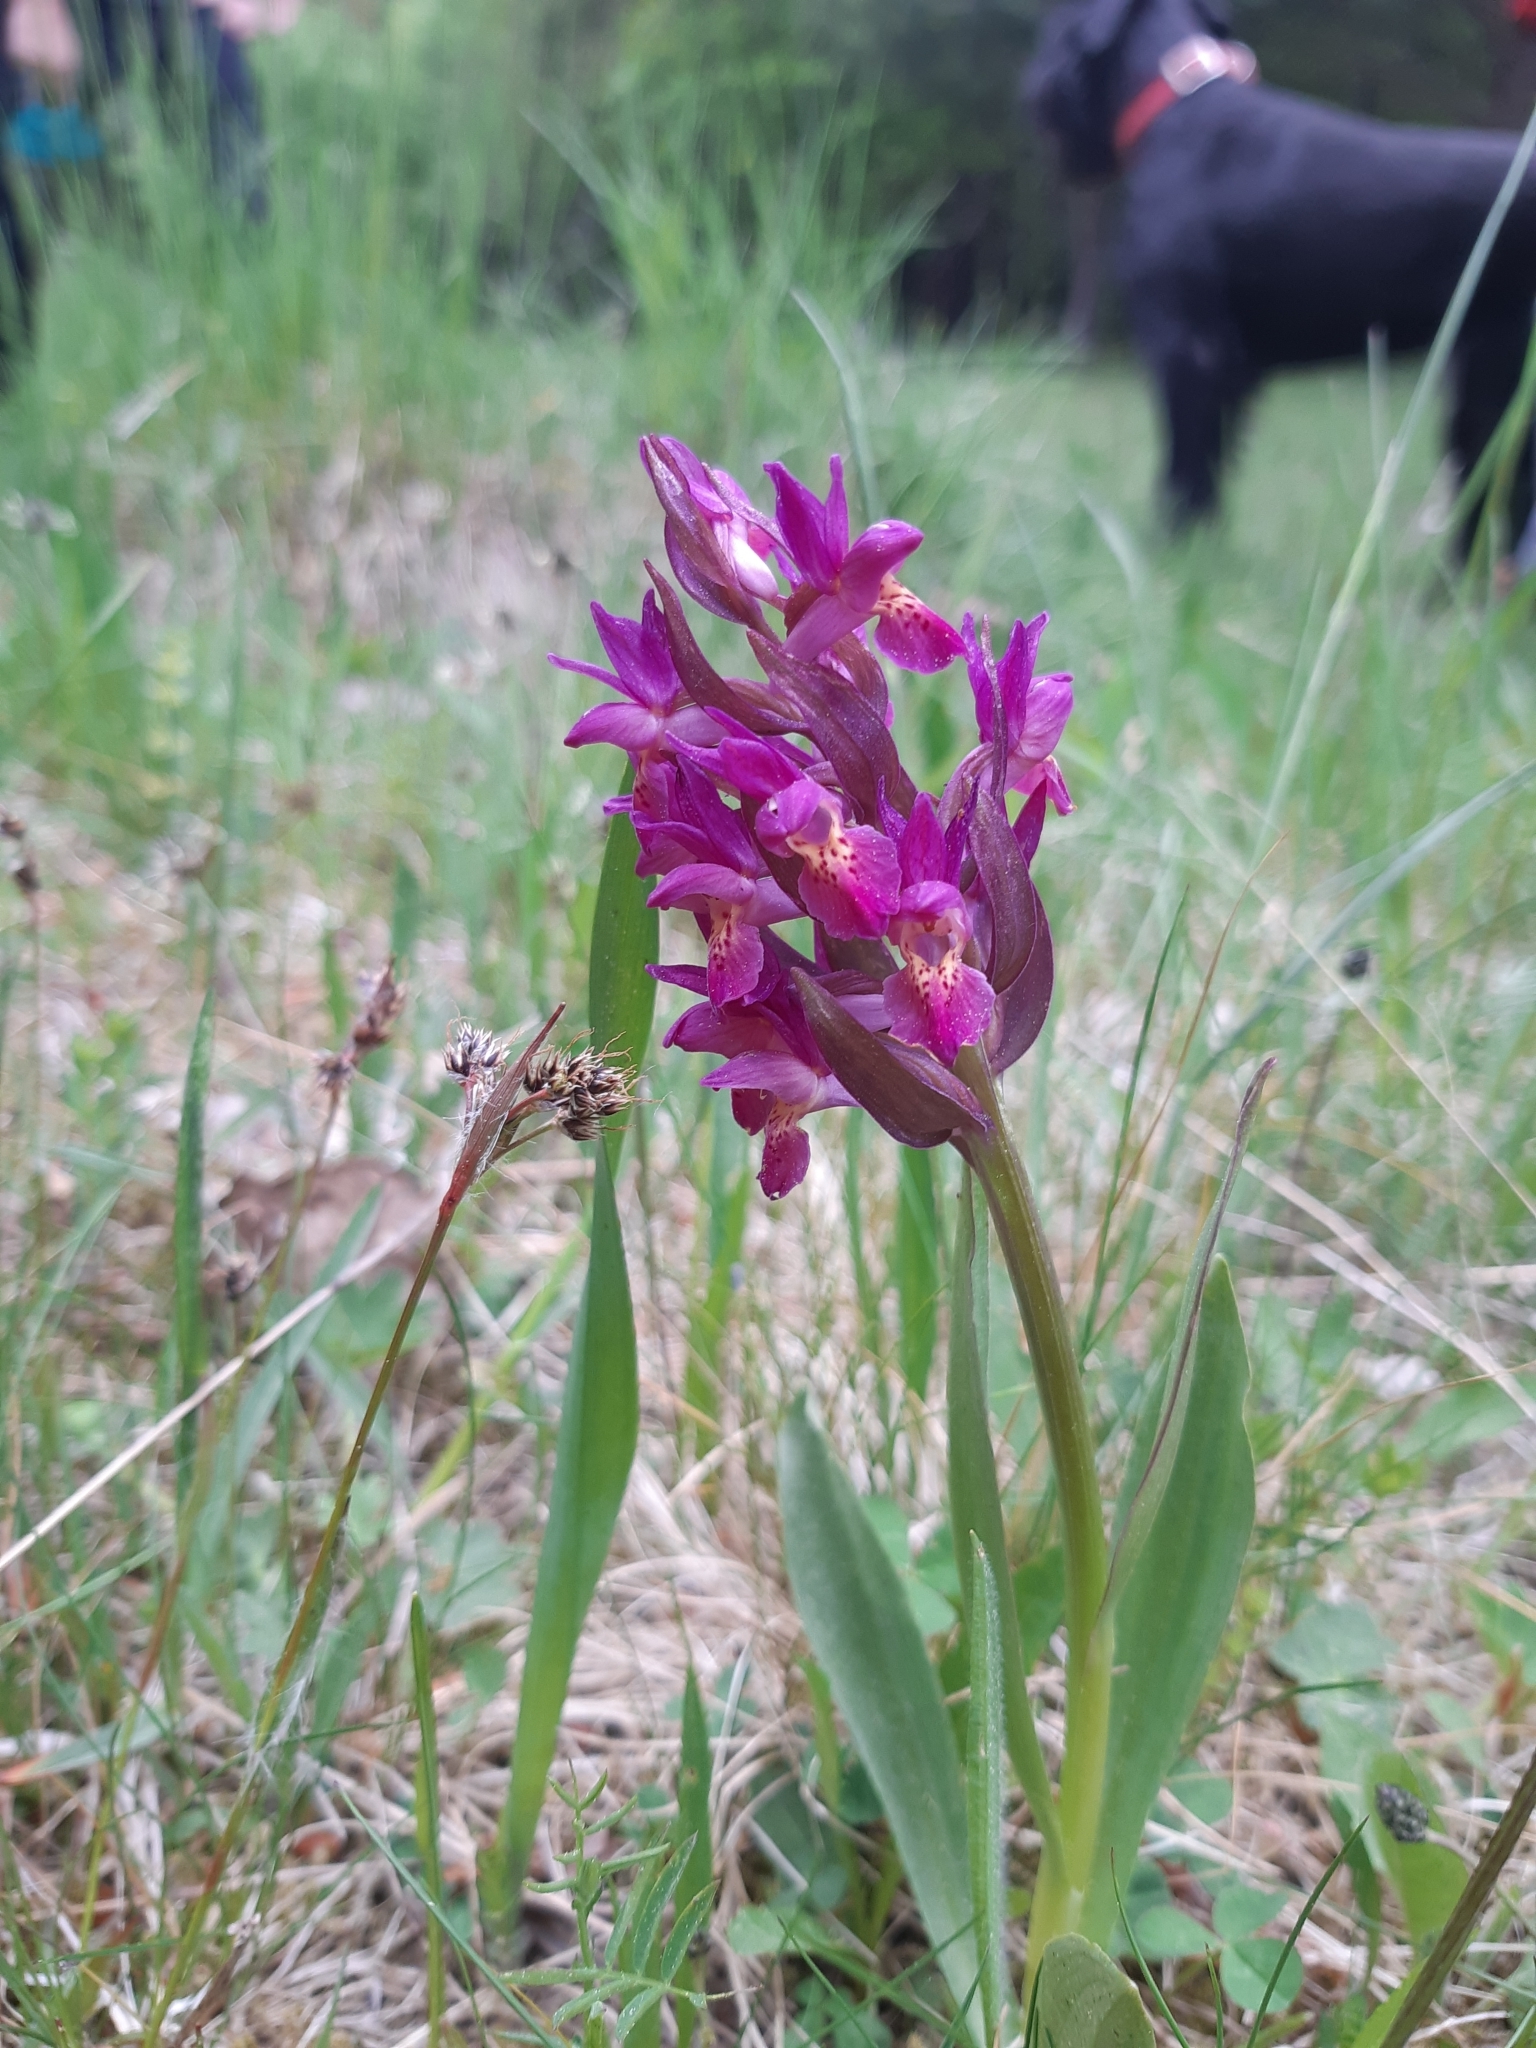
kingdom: Plantae
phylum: Tracheophyta
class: Liliopsida
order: Asparagales
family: Orchidaceae
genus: Dactylorhiza
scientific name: Dactylorhiza sambucina
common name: Elder-flowered orchid
